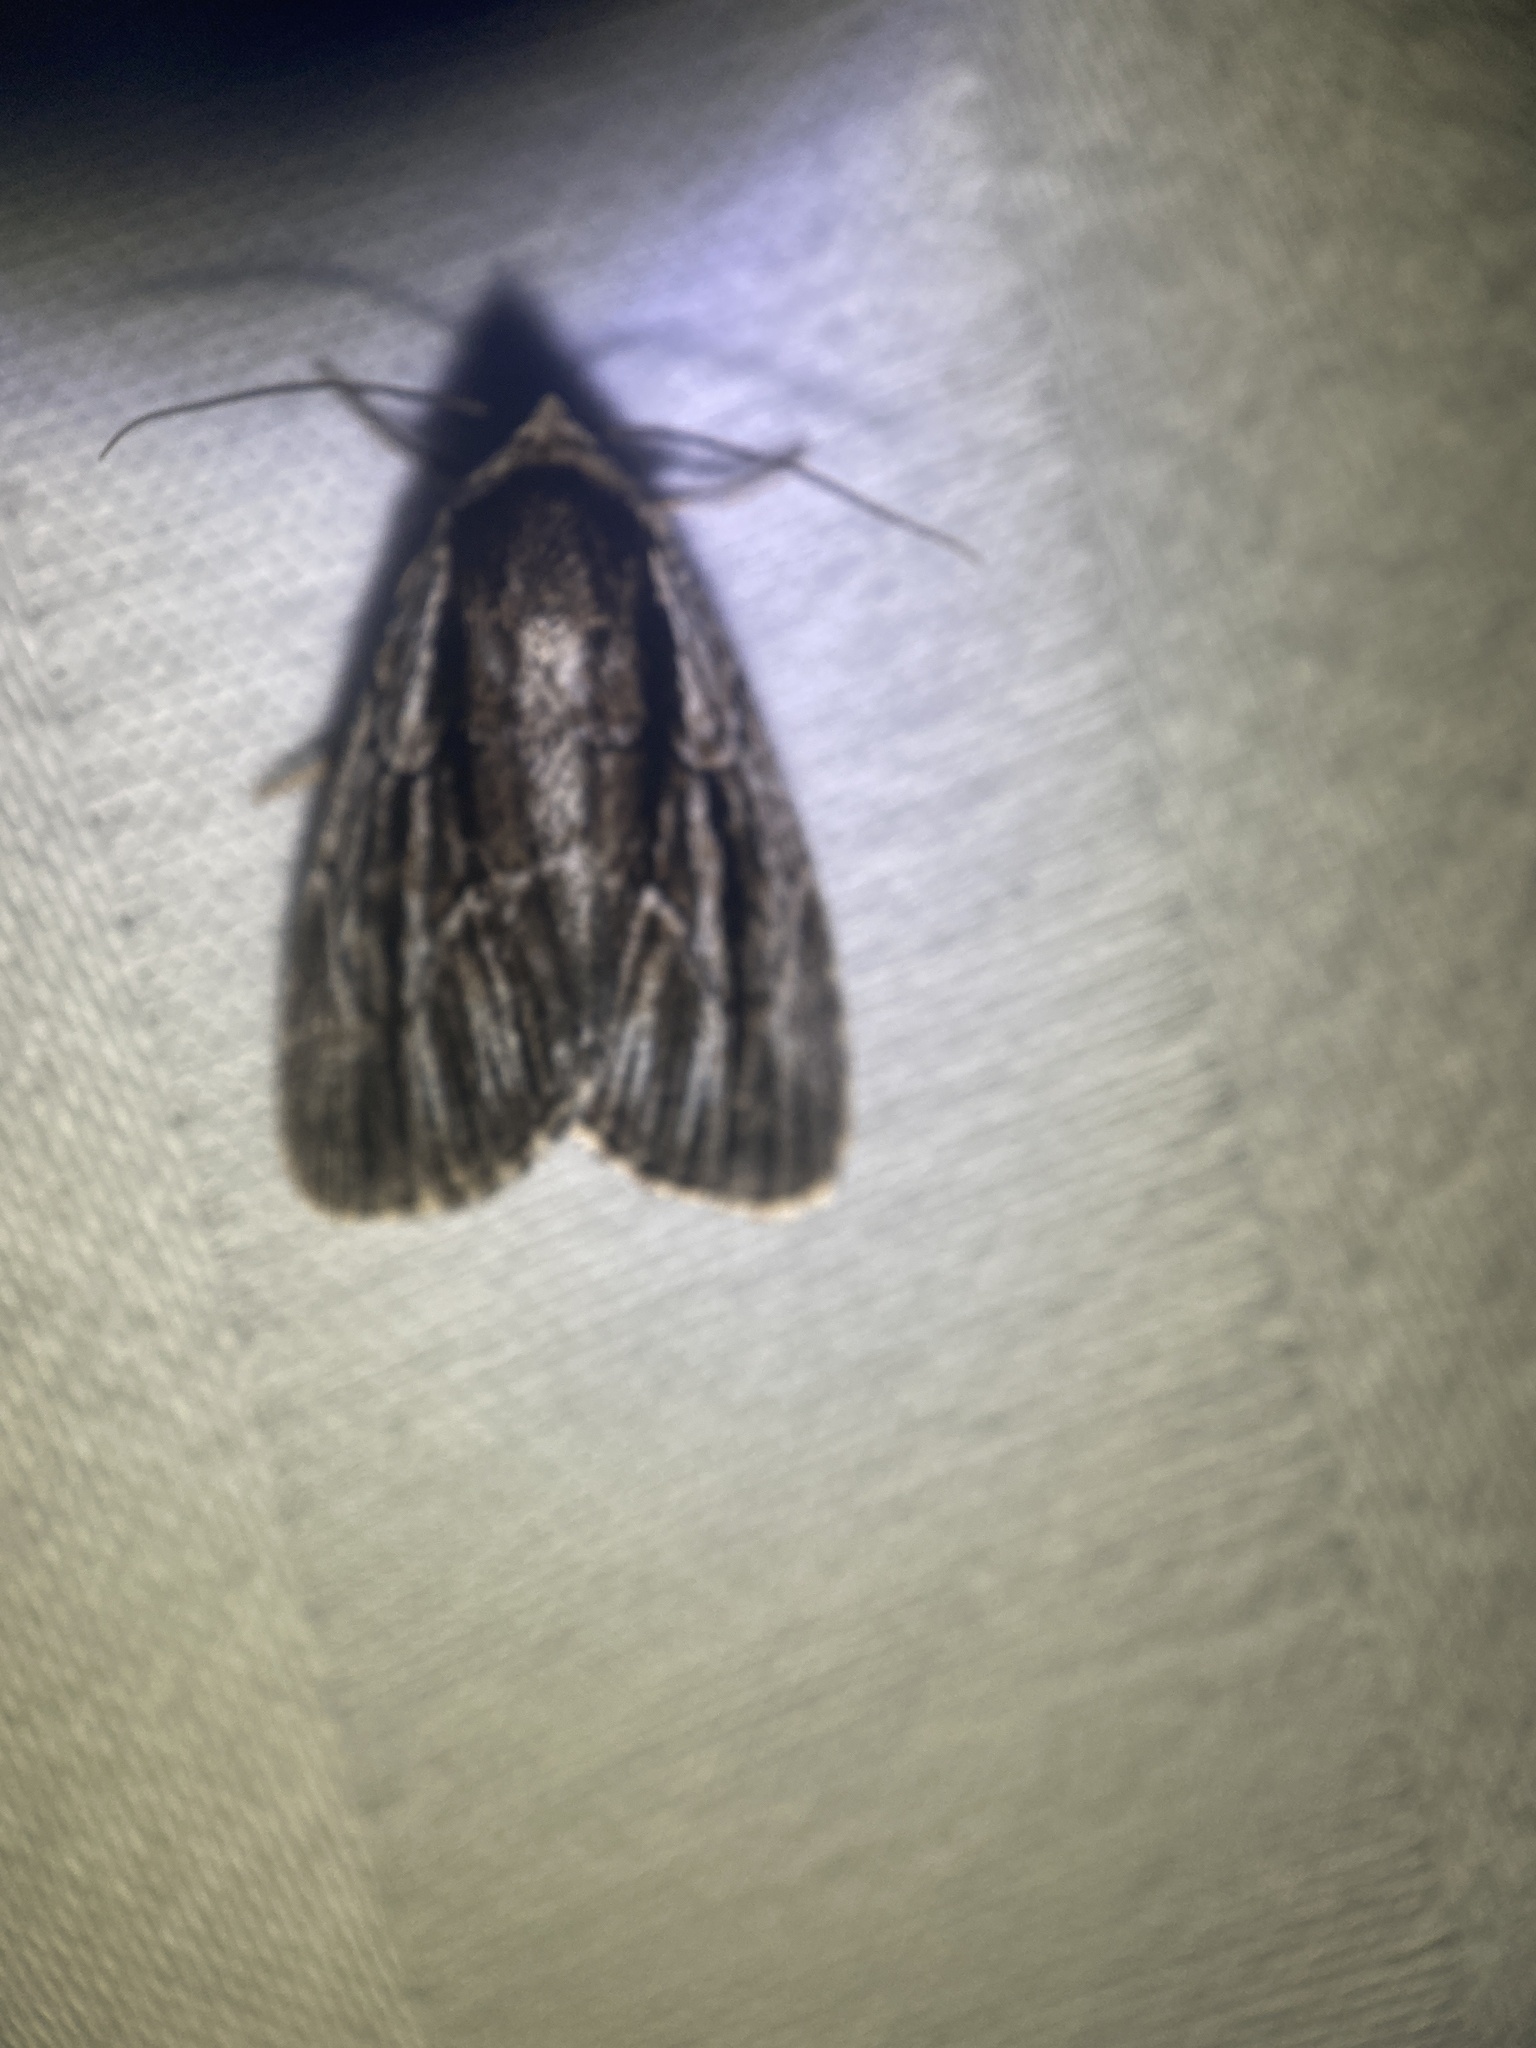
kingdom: Animalia
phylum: Arthropoda
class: Insecta
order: Lepidoptera
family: Noctuidae
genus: Sympistis
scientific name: Sympistis badistriga
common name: Brown-lined sallow moth
